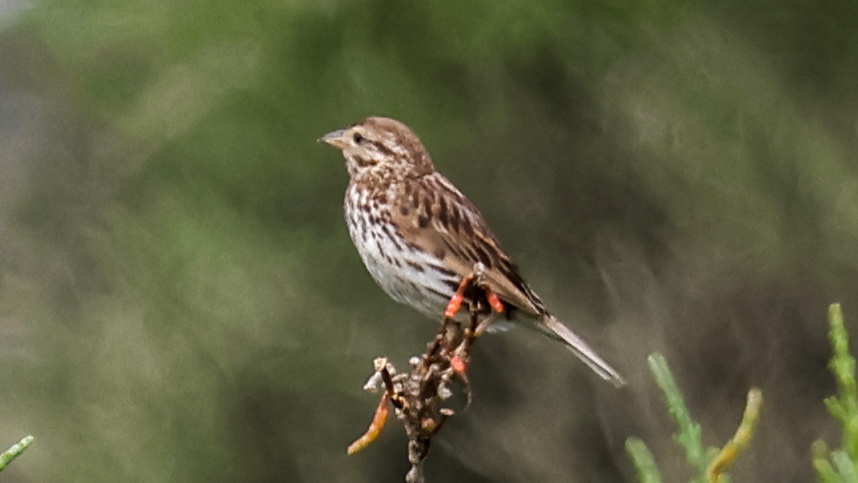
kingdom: Animalia
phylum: Chordata
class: Aves
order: Passeriformes
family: Passerellidae
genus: Passerculus
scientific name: Passerculus sandwichensis
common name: Savannah sparrow
